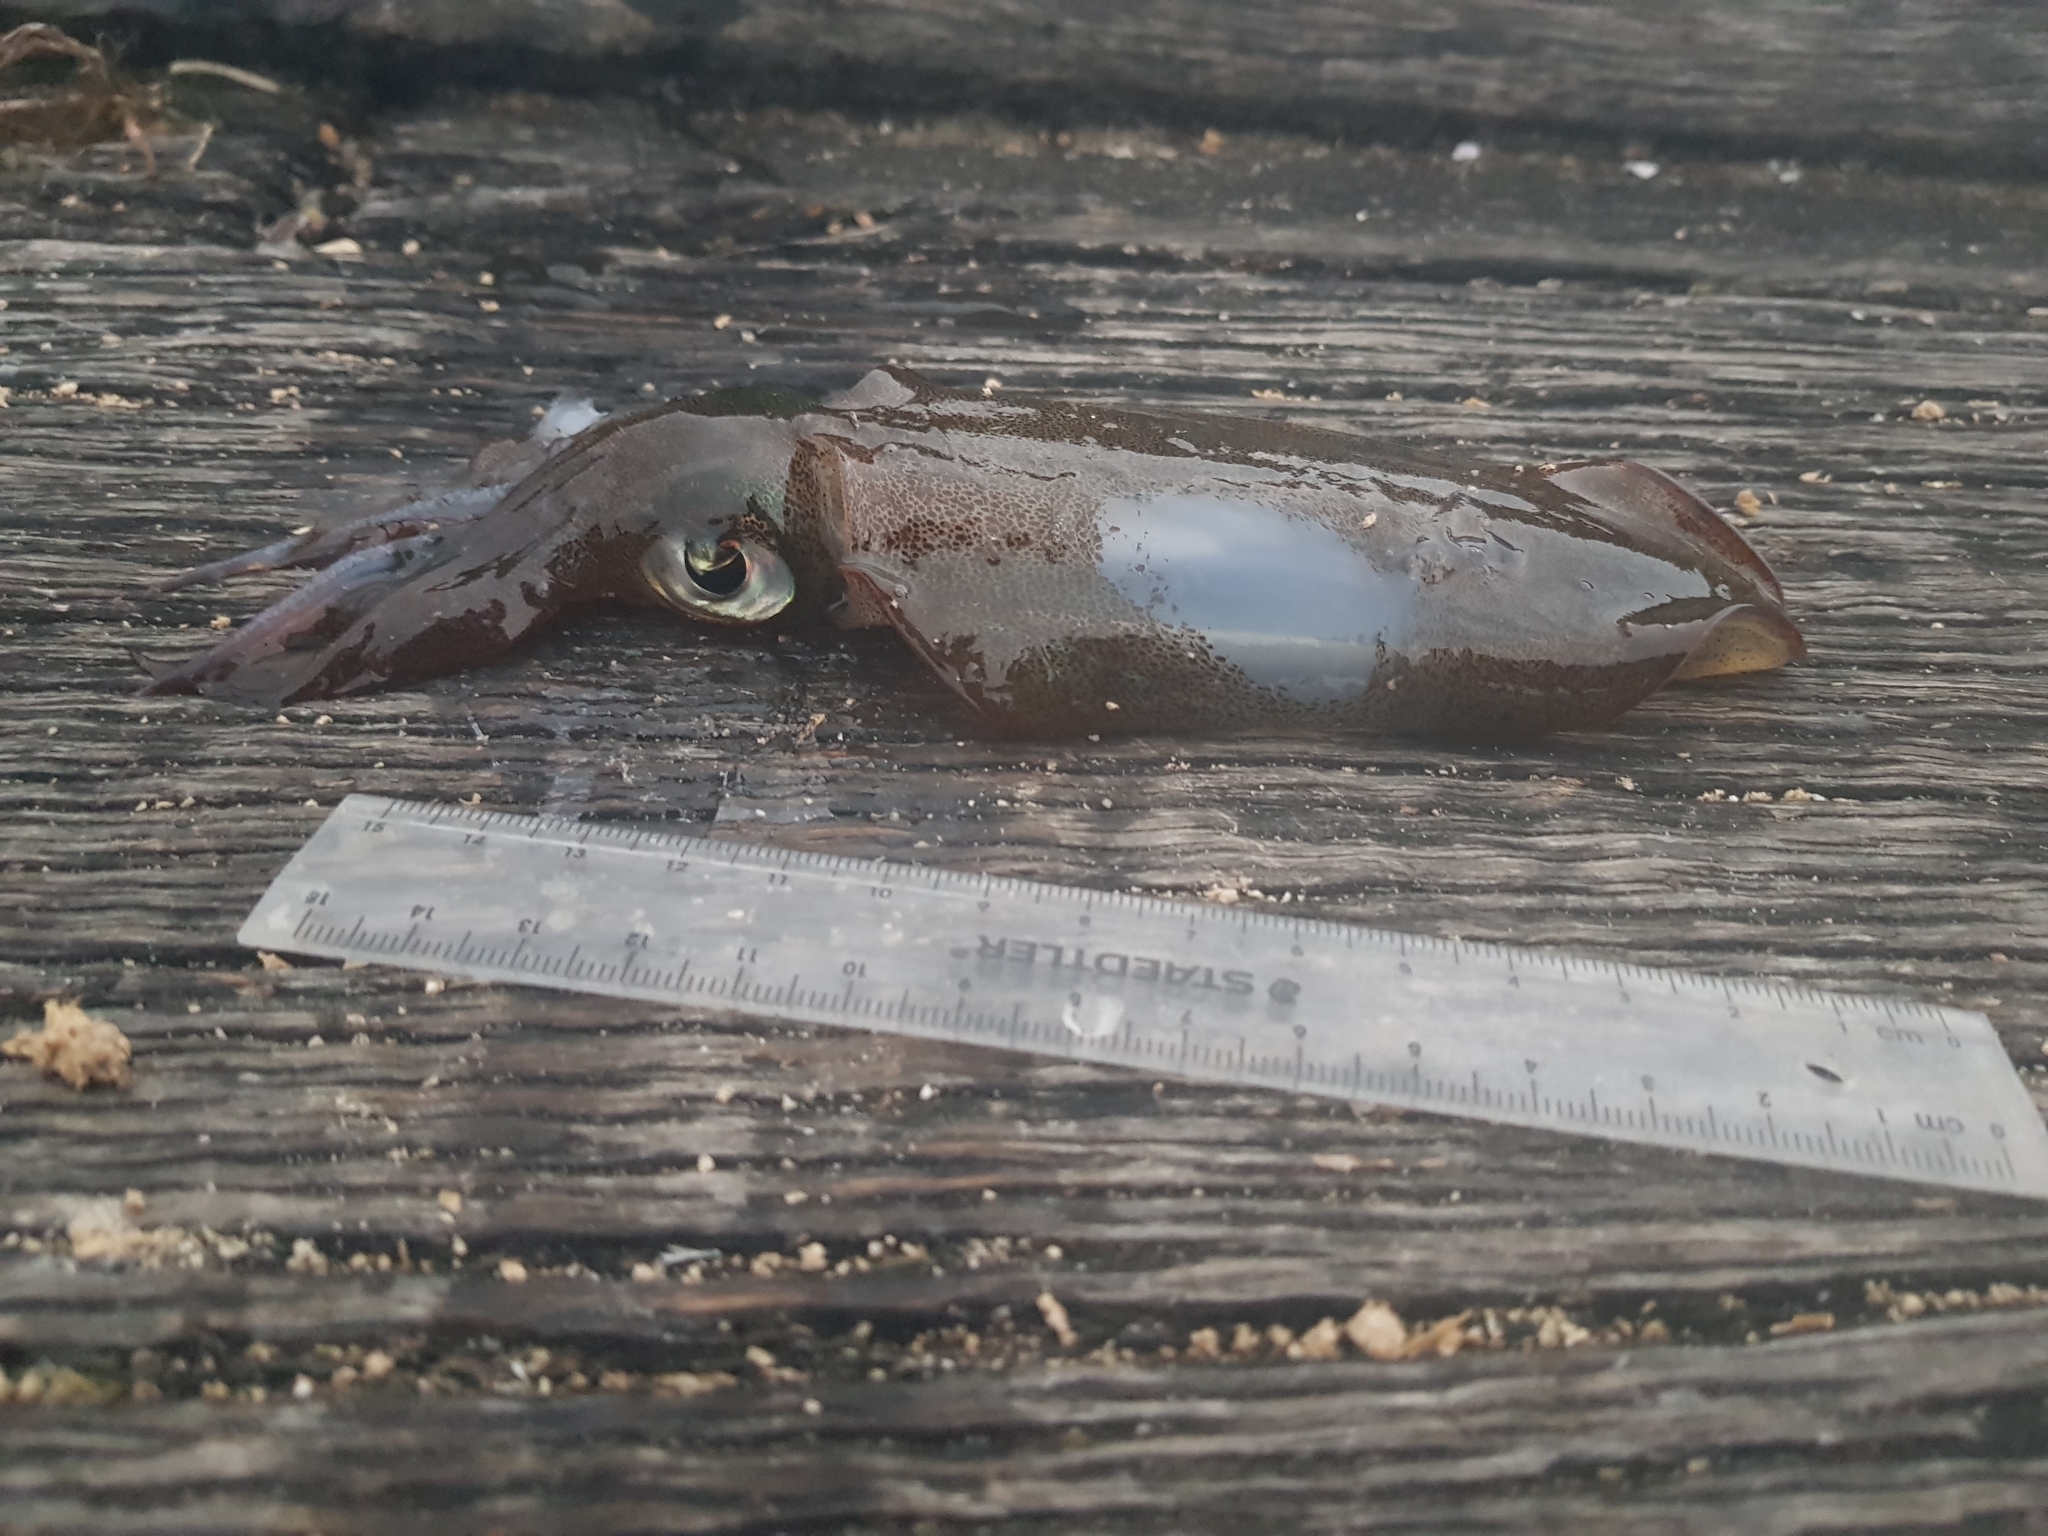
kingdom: Animalia
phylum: Mollusca
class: Cephalopoda
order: Myopsida
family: Loliginidae
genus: Sepioteuthis
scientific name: Sepioteuthis australis
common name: Southern reef squid
